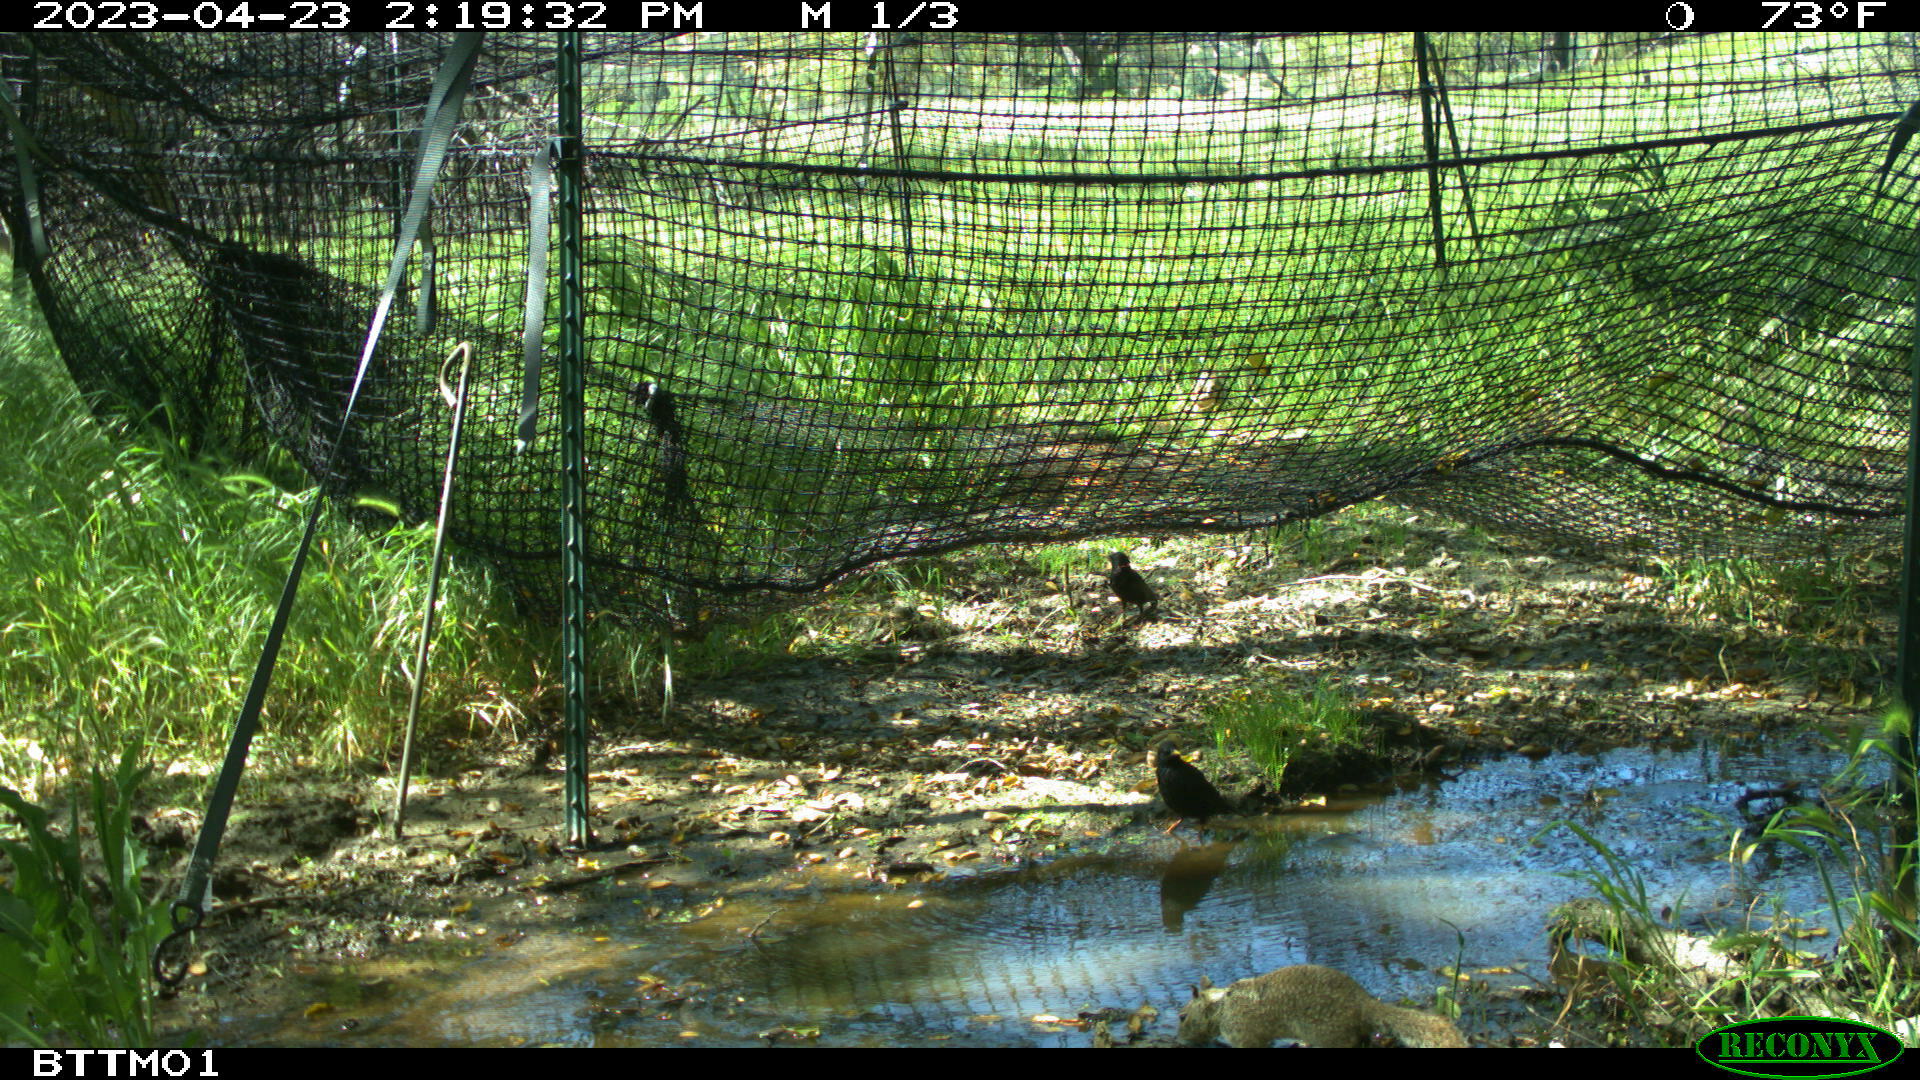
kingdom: Animalia
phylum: Chordata
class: Aves
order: Passeriformes
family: Sturnidae
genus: Sturnus
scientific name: Sturnus vulgaris
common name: Common starling
